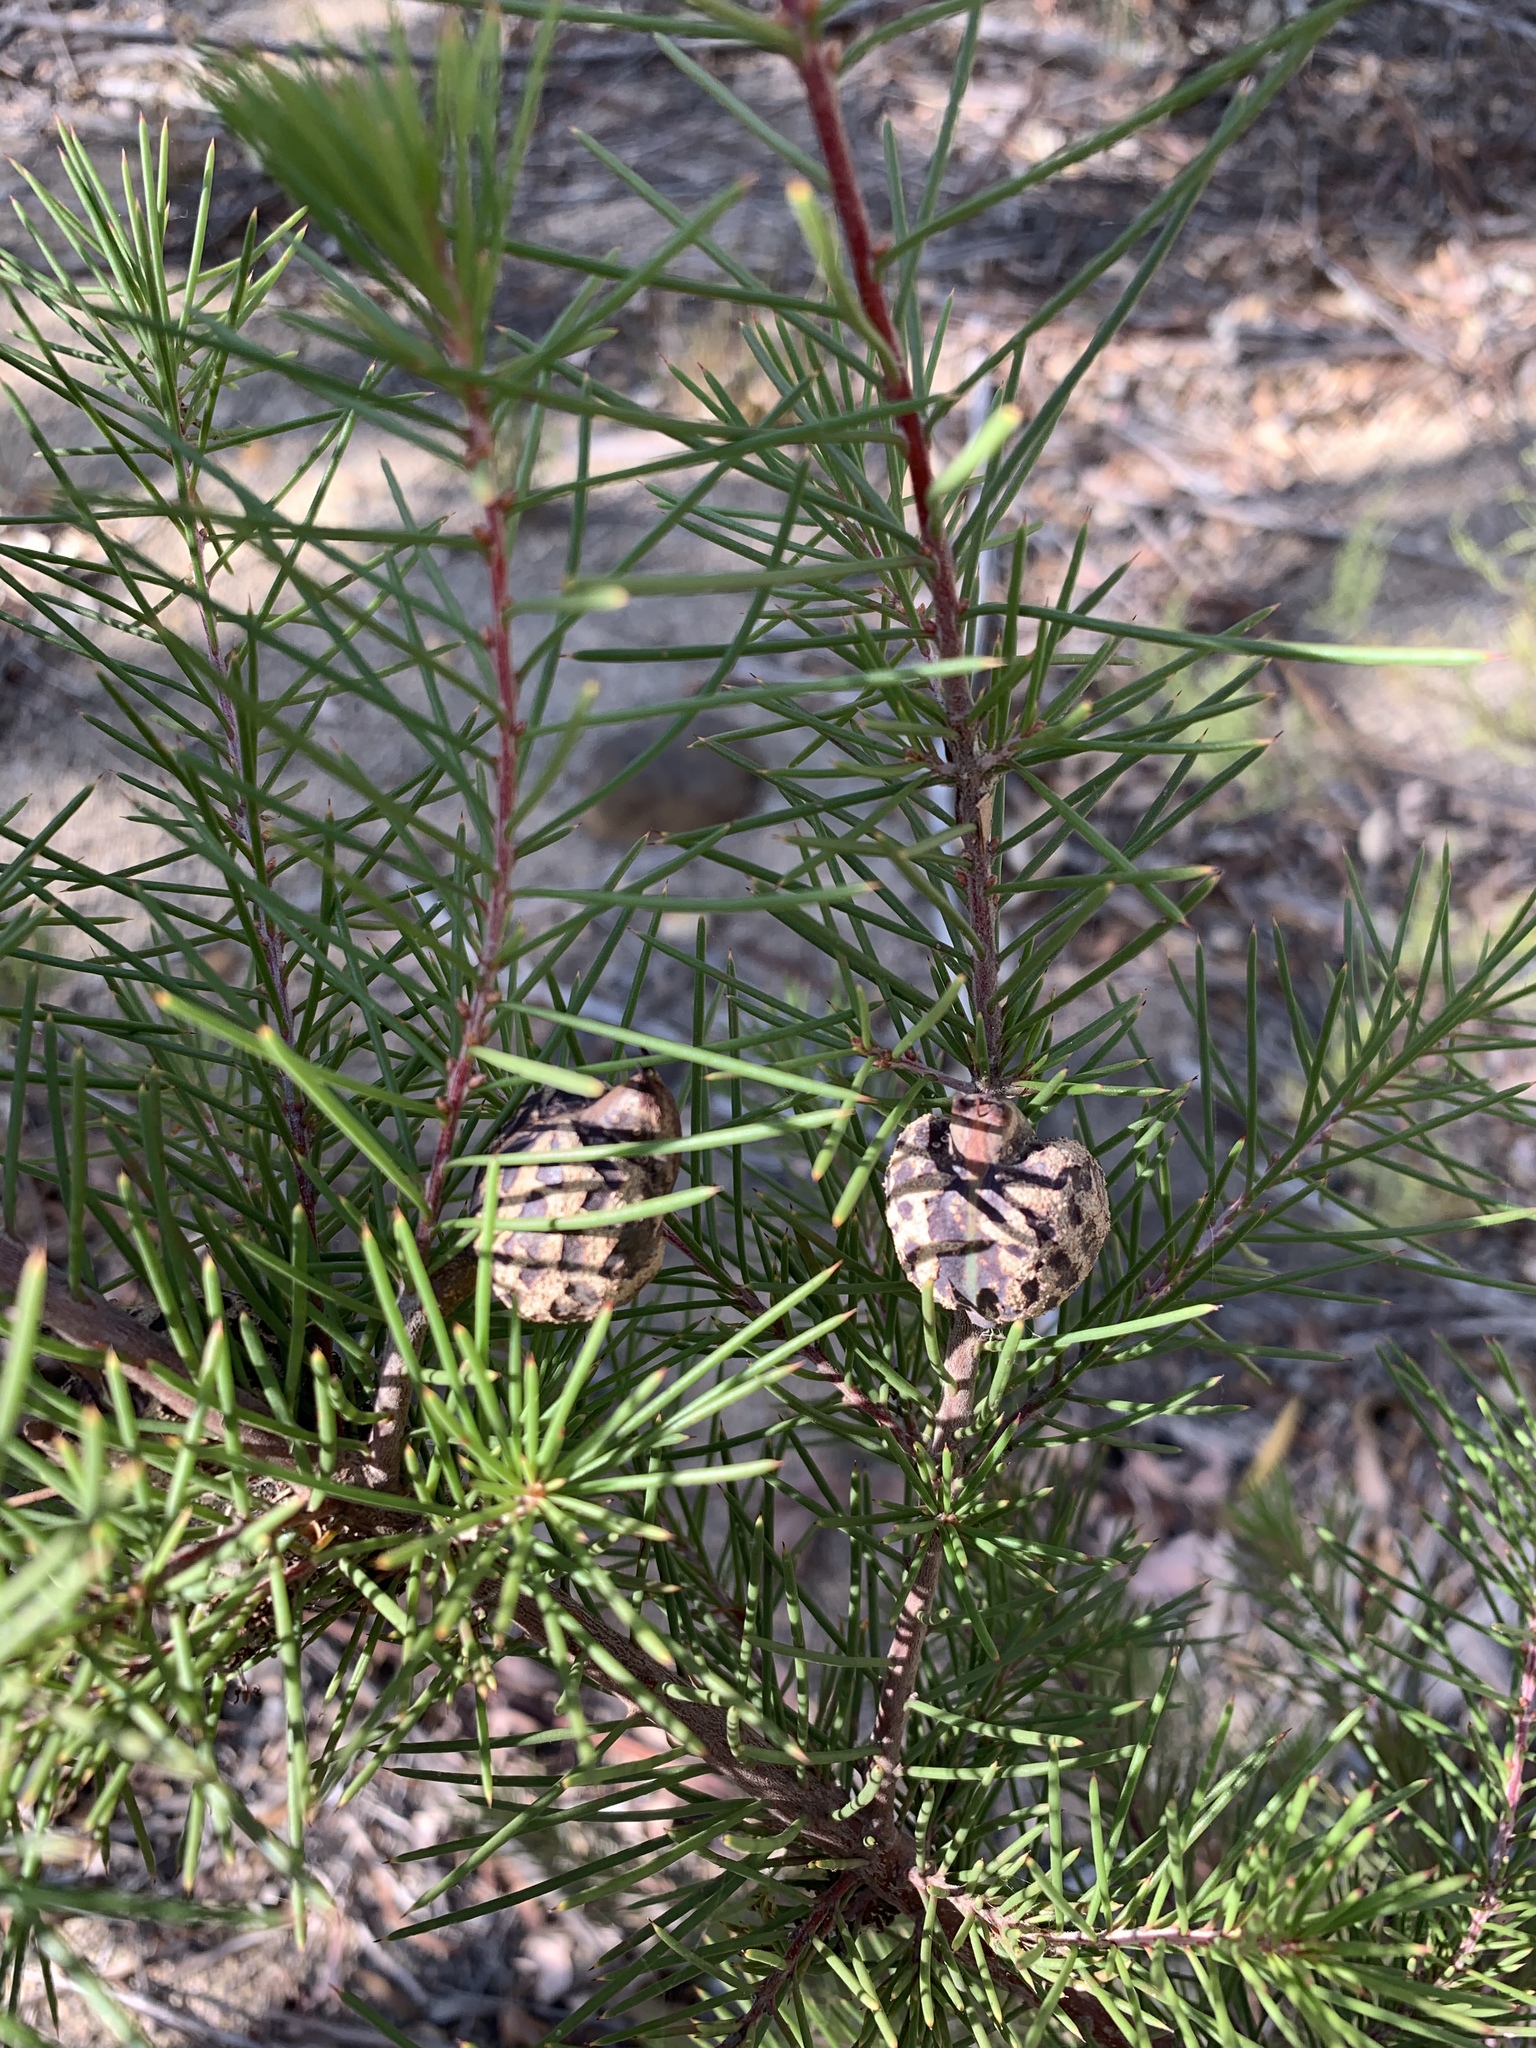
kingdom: Plantae
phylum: Tracheophyta
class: Magnoliopsida
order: Proteales
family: Proteaceae
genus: Hakea
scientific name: Hakea sericea
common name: Needle bush
